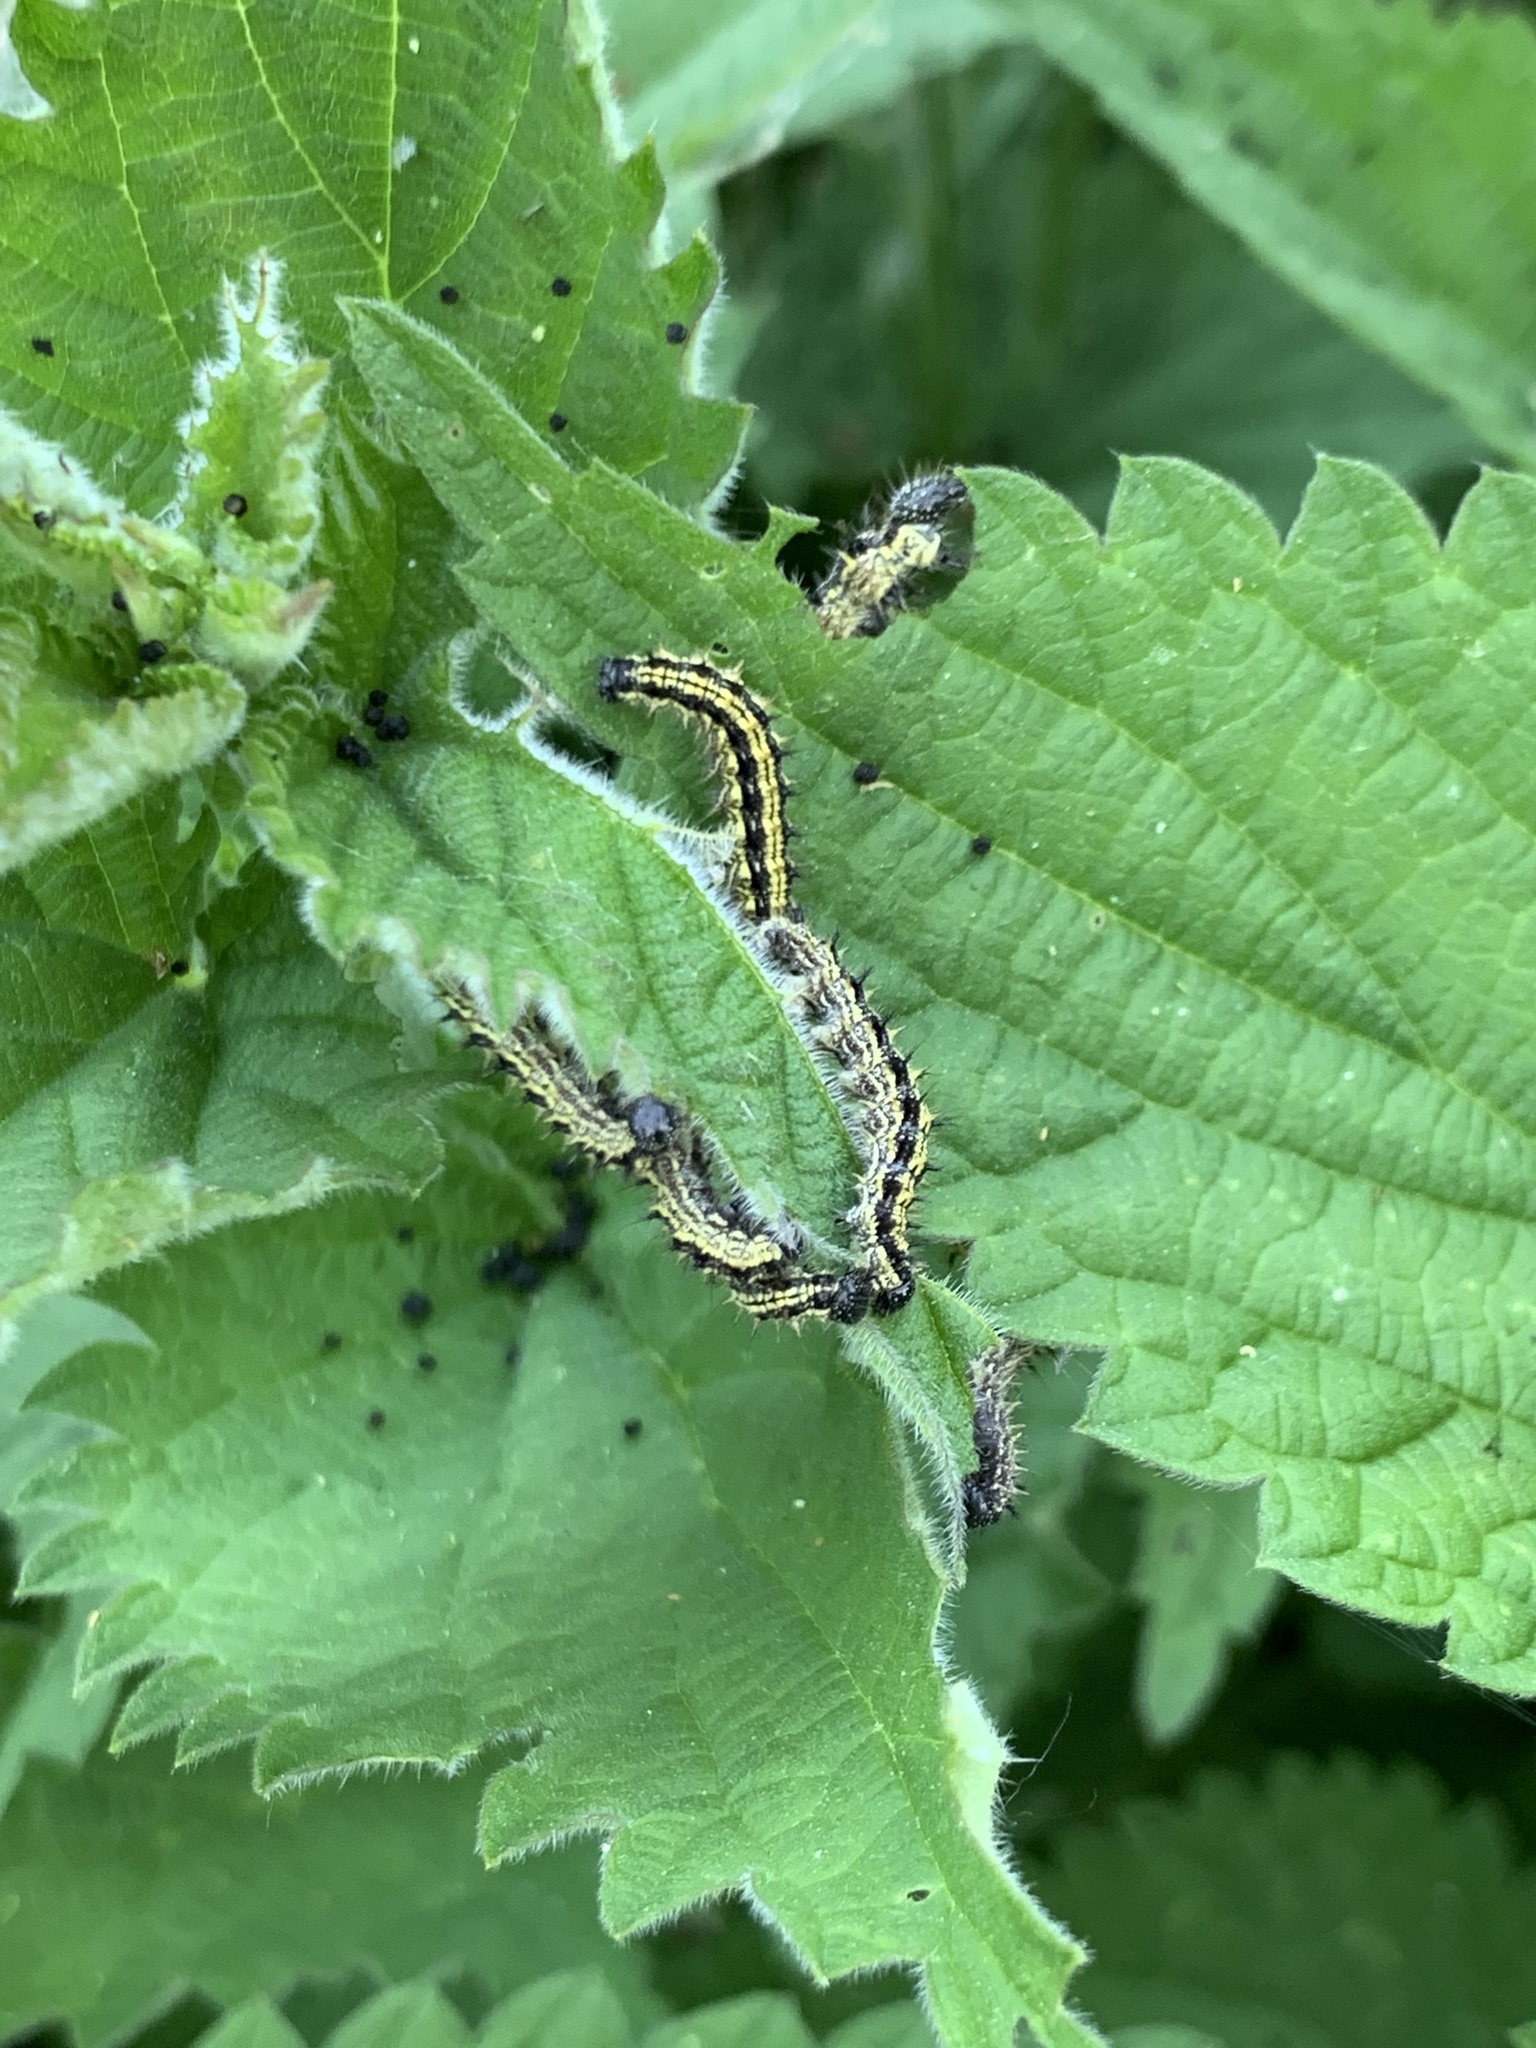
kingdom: Animalia
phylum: Arthropoda
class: Insecta
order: Lepidoptera
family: Nymphalidae
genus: Aglais
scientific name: Aglais urticae
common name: Small tortoiseshell
